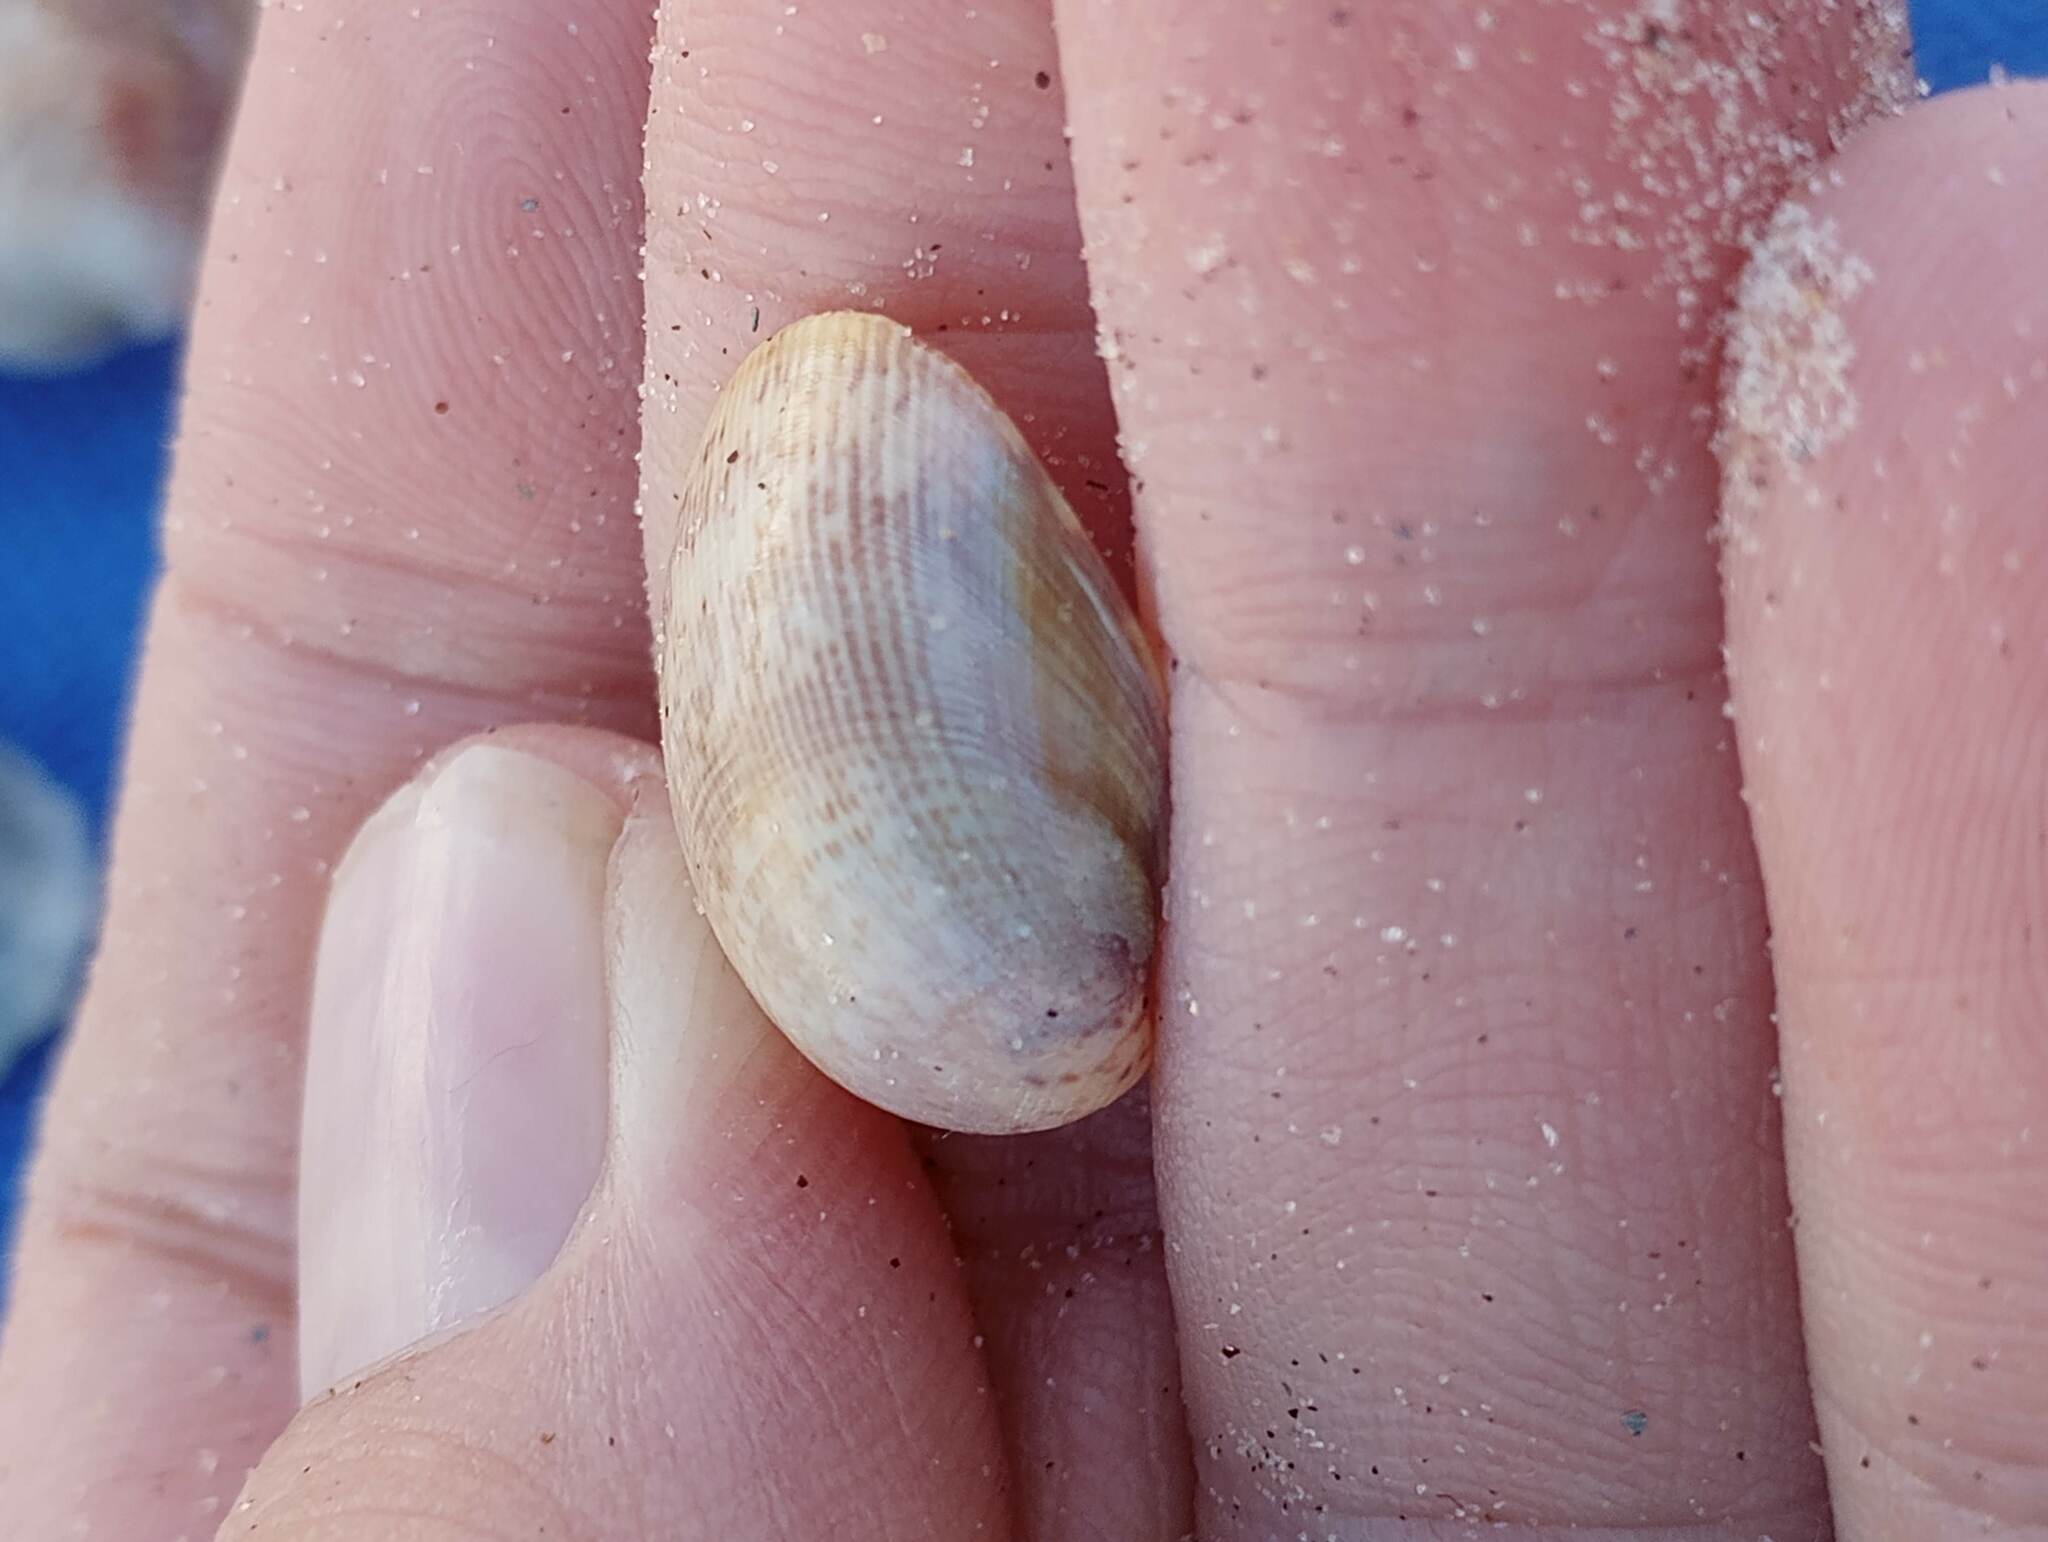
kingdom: Animalia
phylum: Mollusca
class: Bivalvia
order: Cardiida
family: Cardiidae
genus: Laevicardium
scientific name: Laevicardium substriatum
